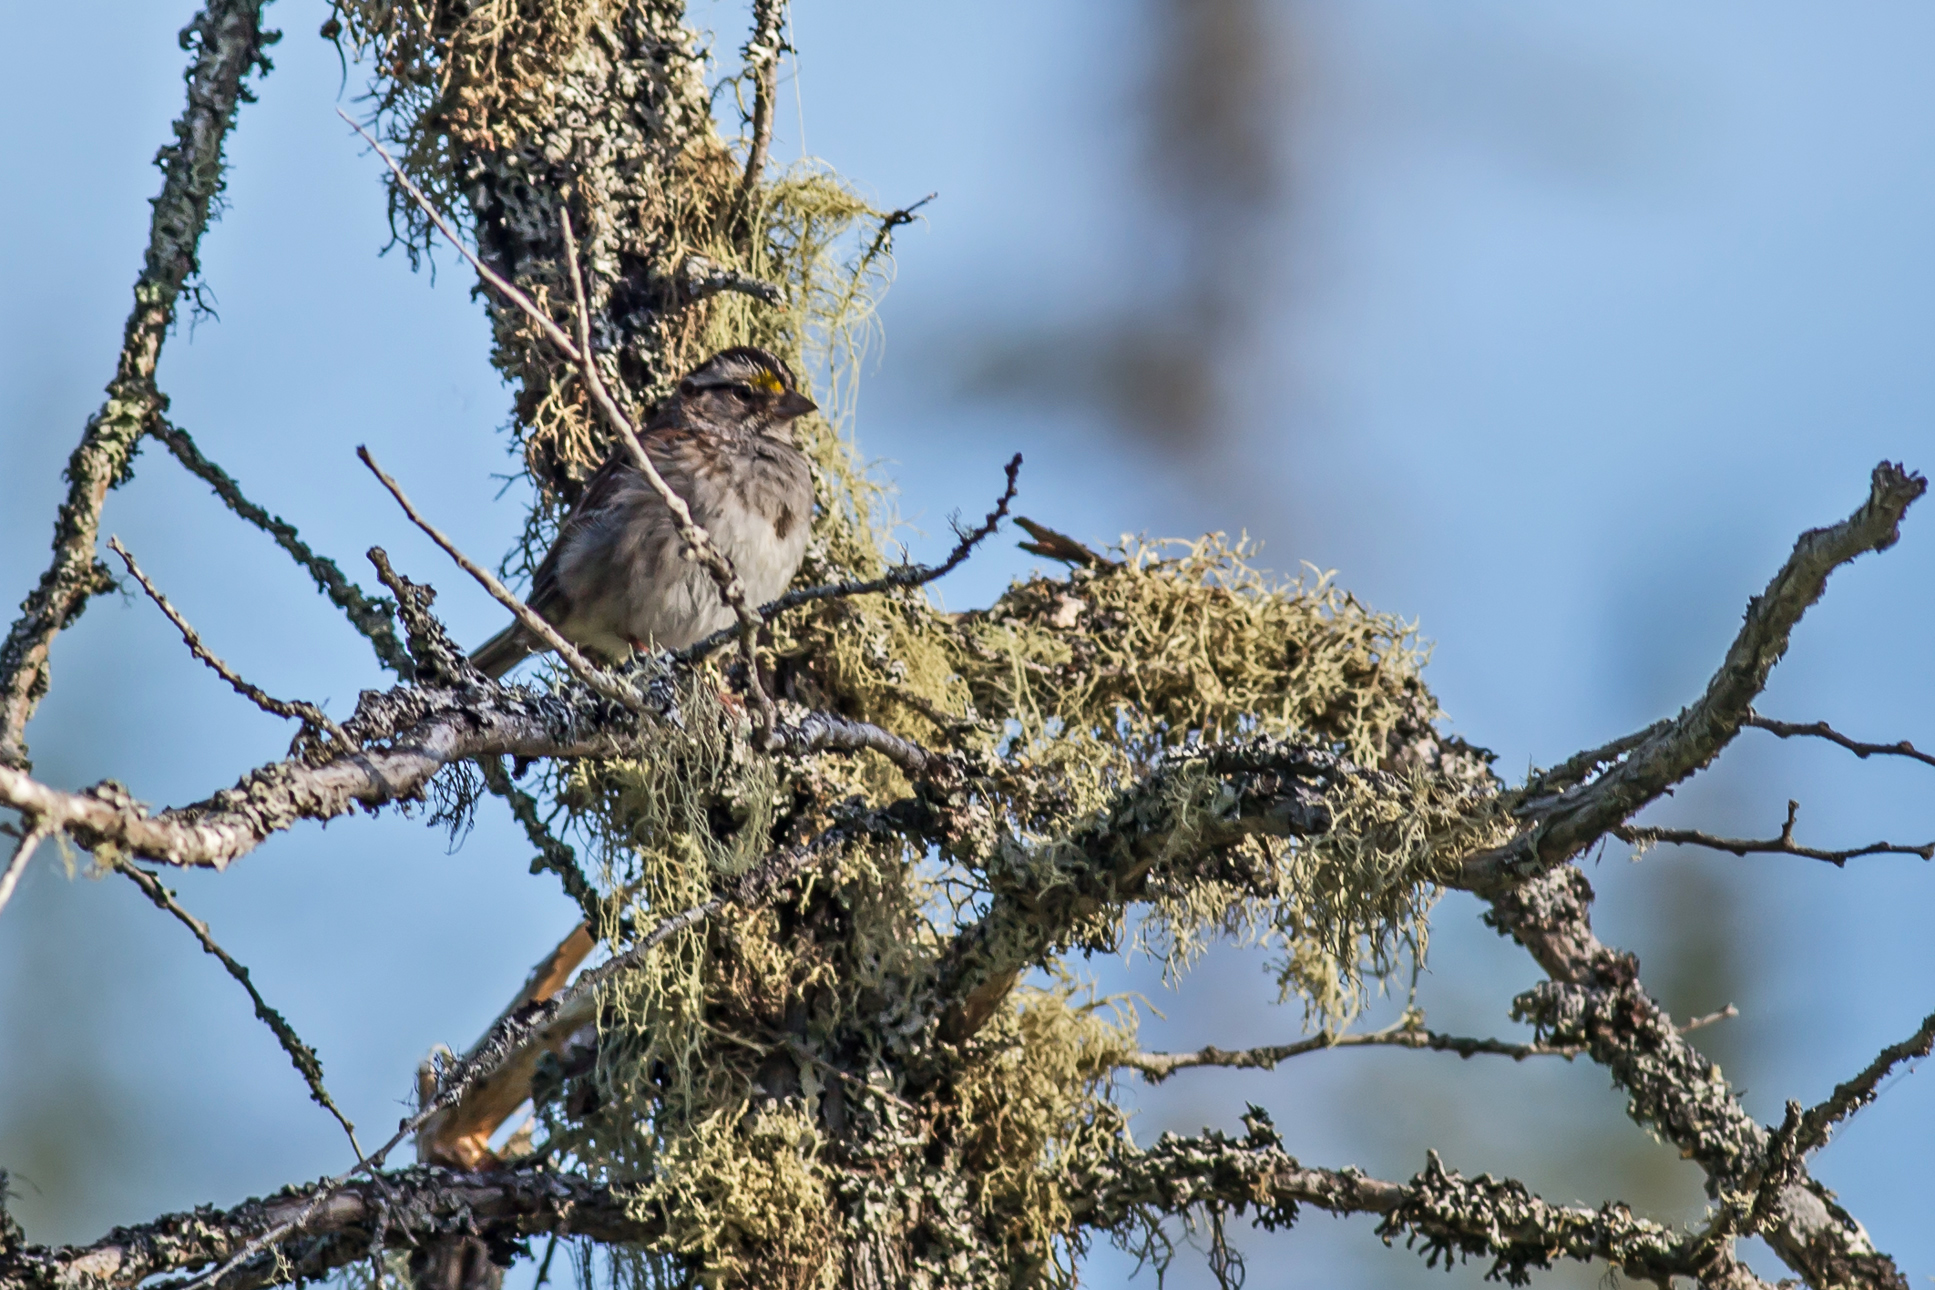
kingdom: Animalia
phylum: Chordata
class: Aves
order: Passeriformes
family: Passerellidae
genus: Zonotrichia
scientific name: Zonotrichia albicollis
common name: White-throated sparrow
